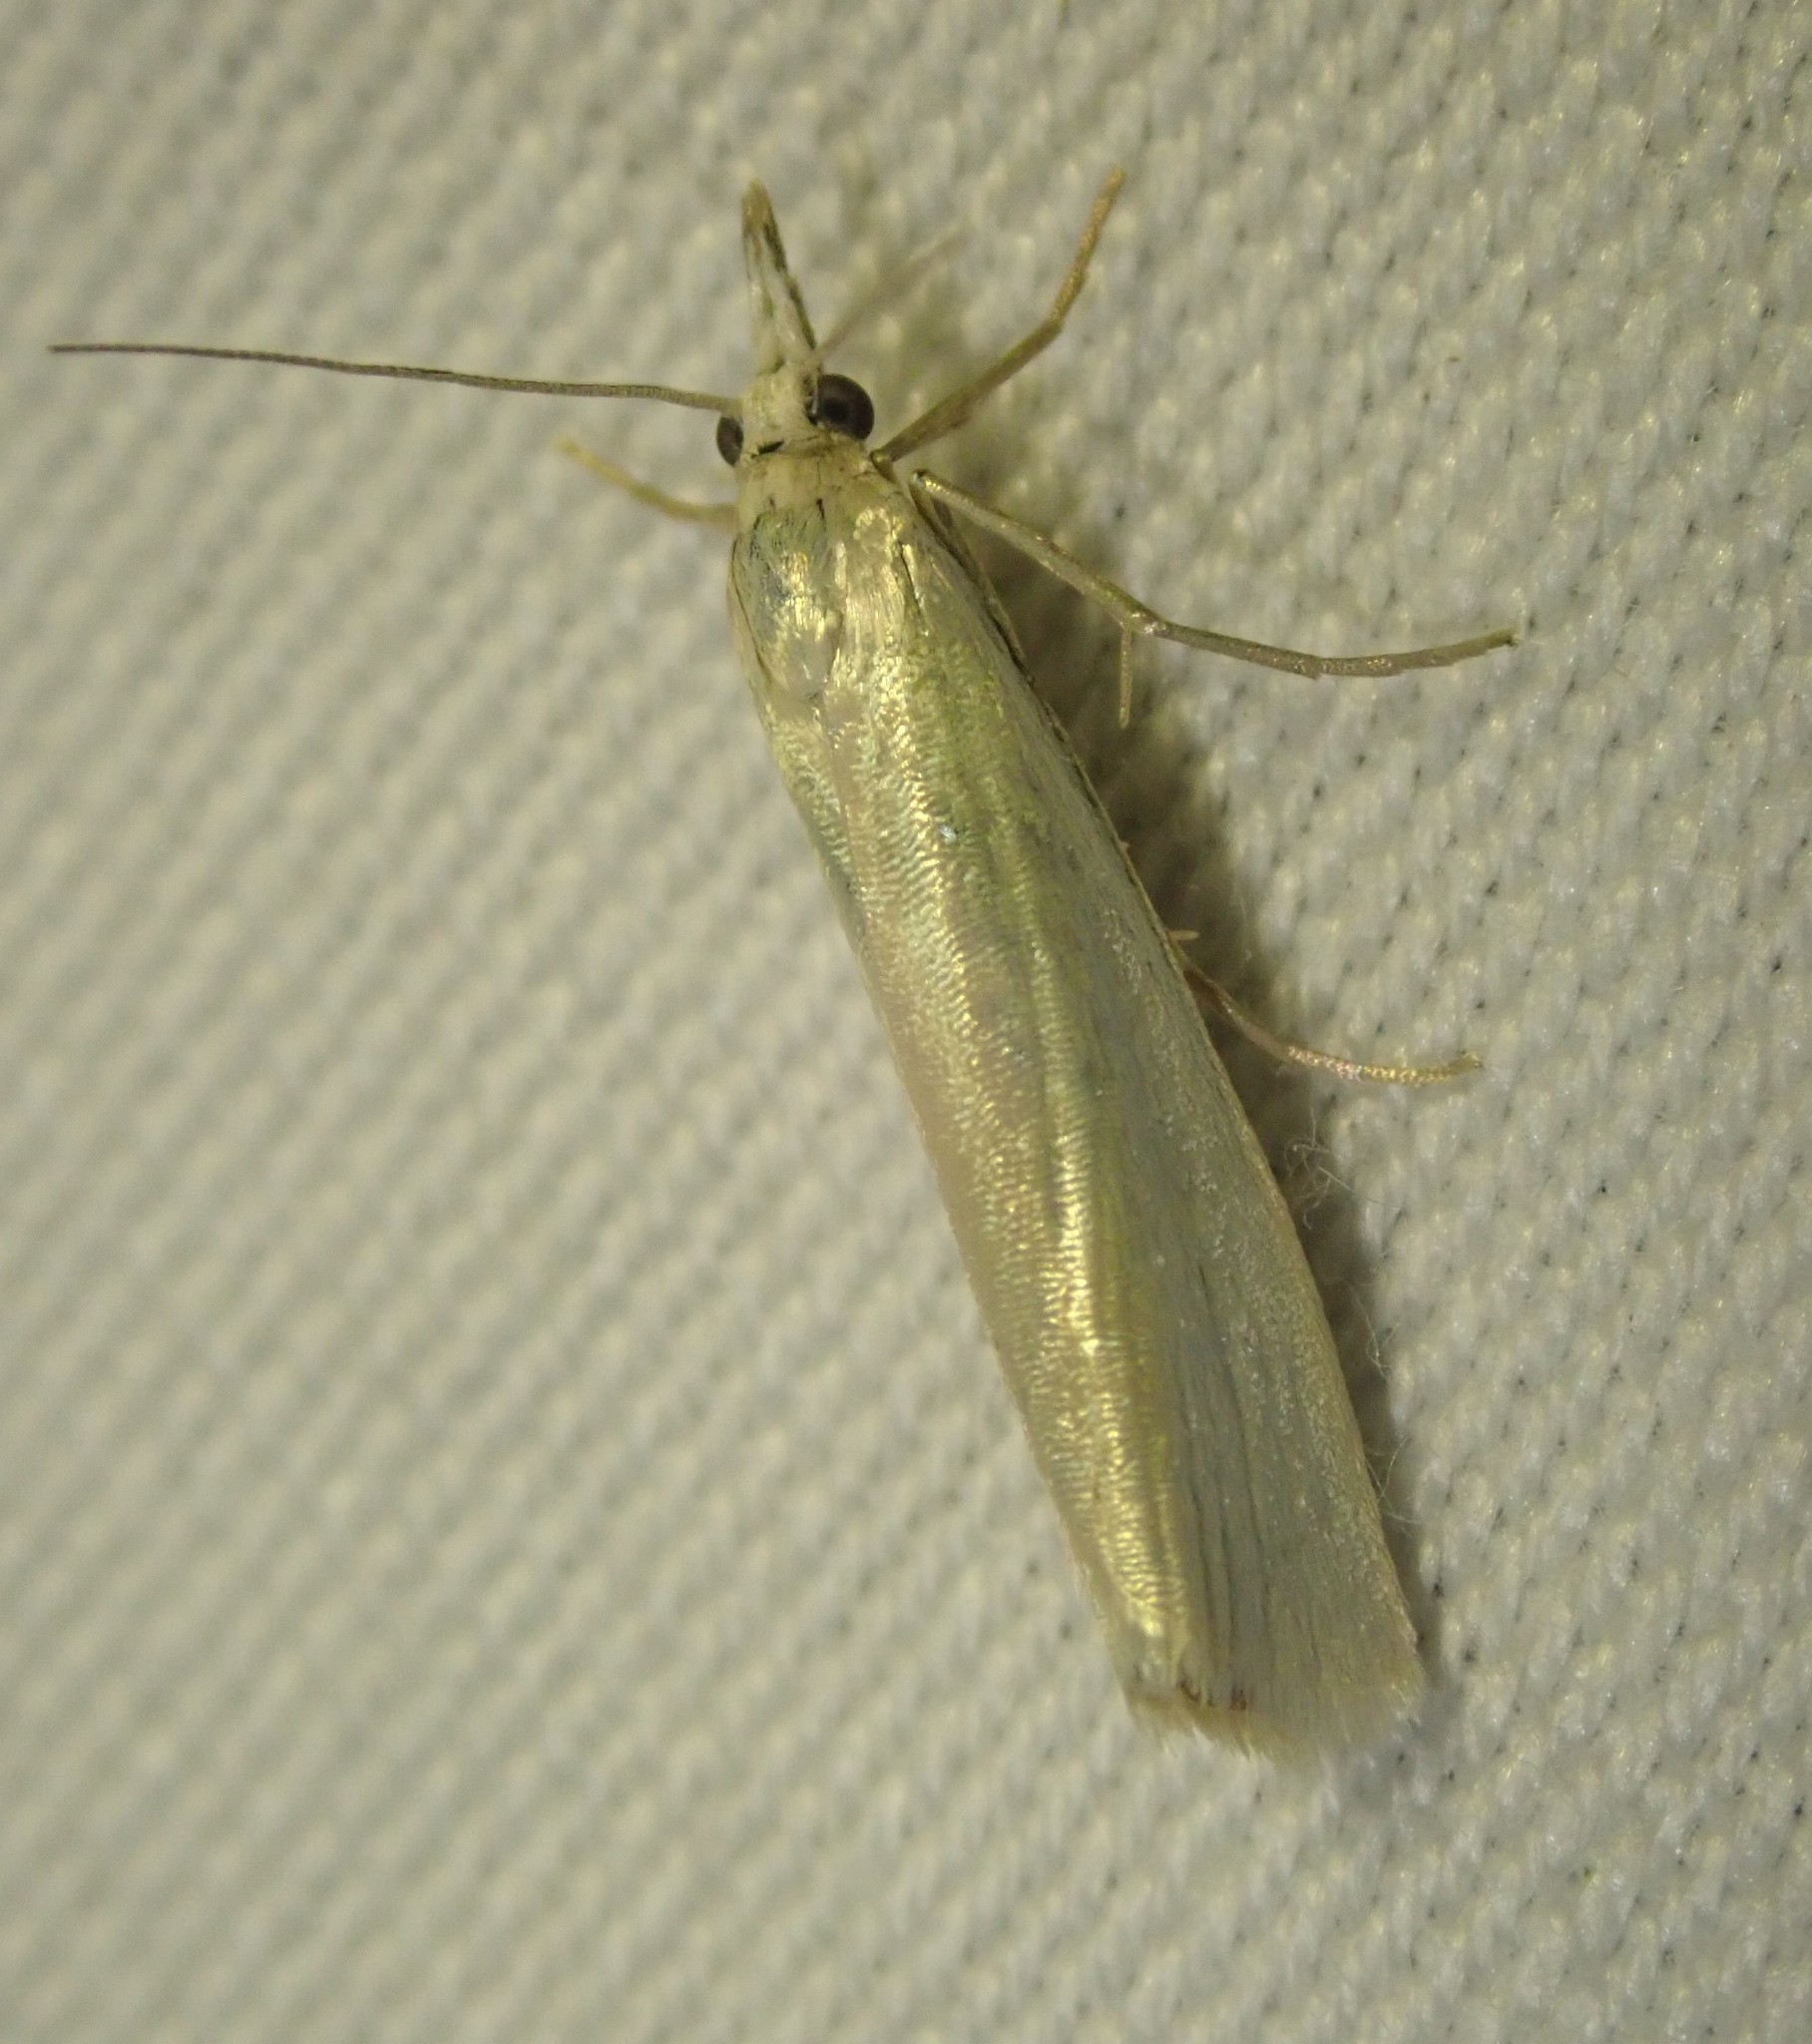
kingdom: Animalia
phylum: Arthropoda
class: Insecta
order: Lepidoptera
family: Crambidae
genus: Crambus
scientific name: Crambus perlellus
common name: Yellow satin veneer
